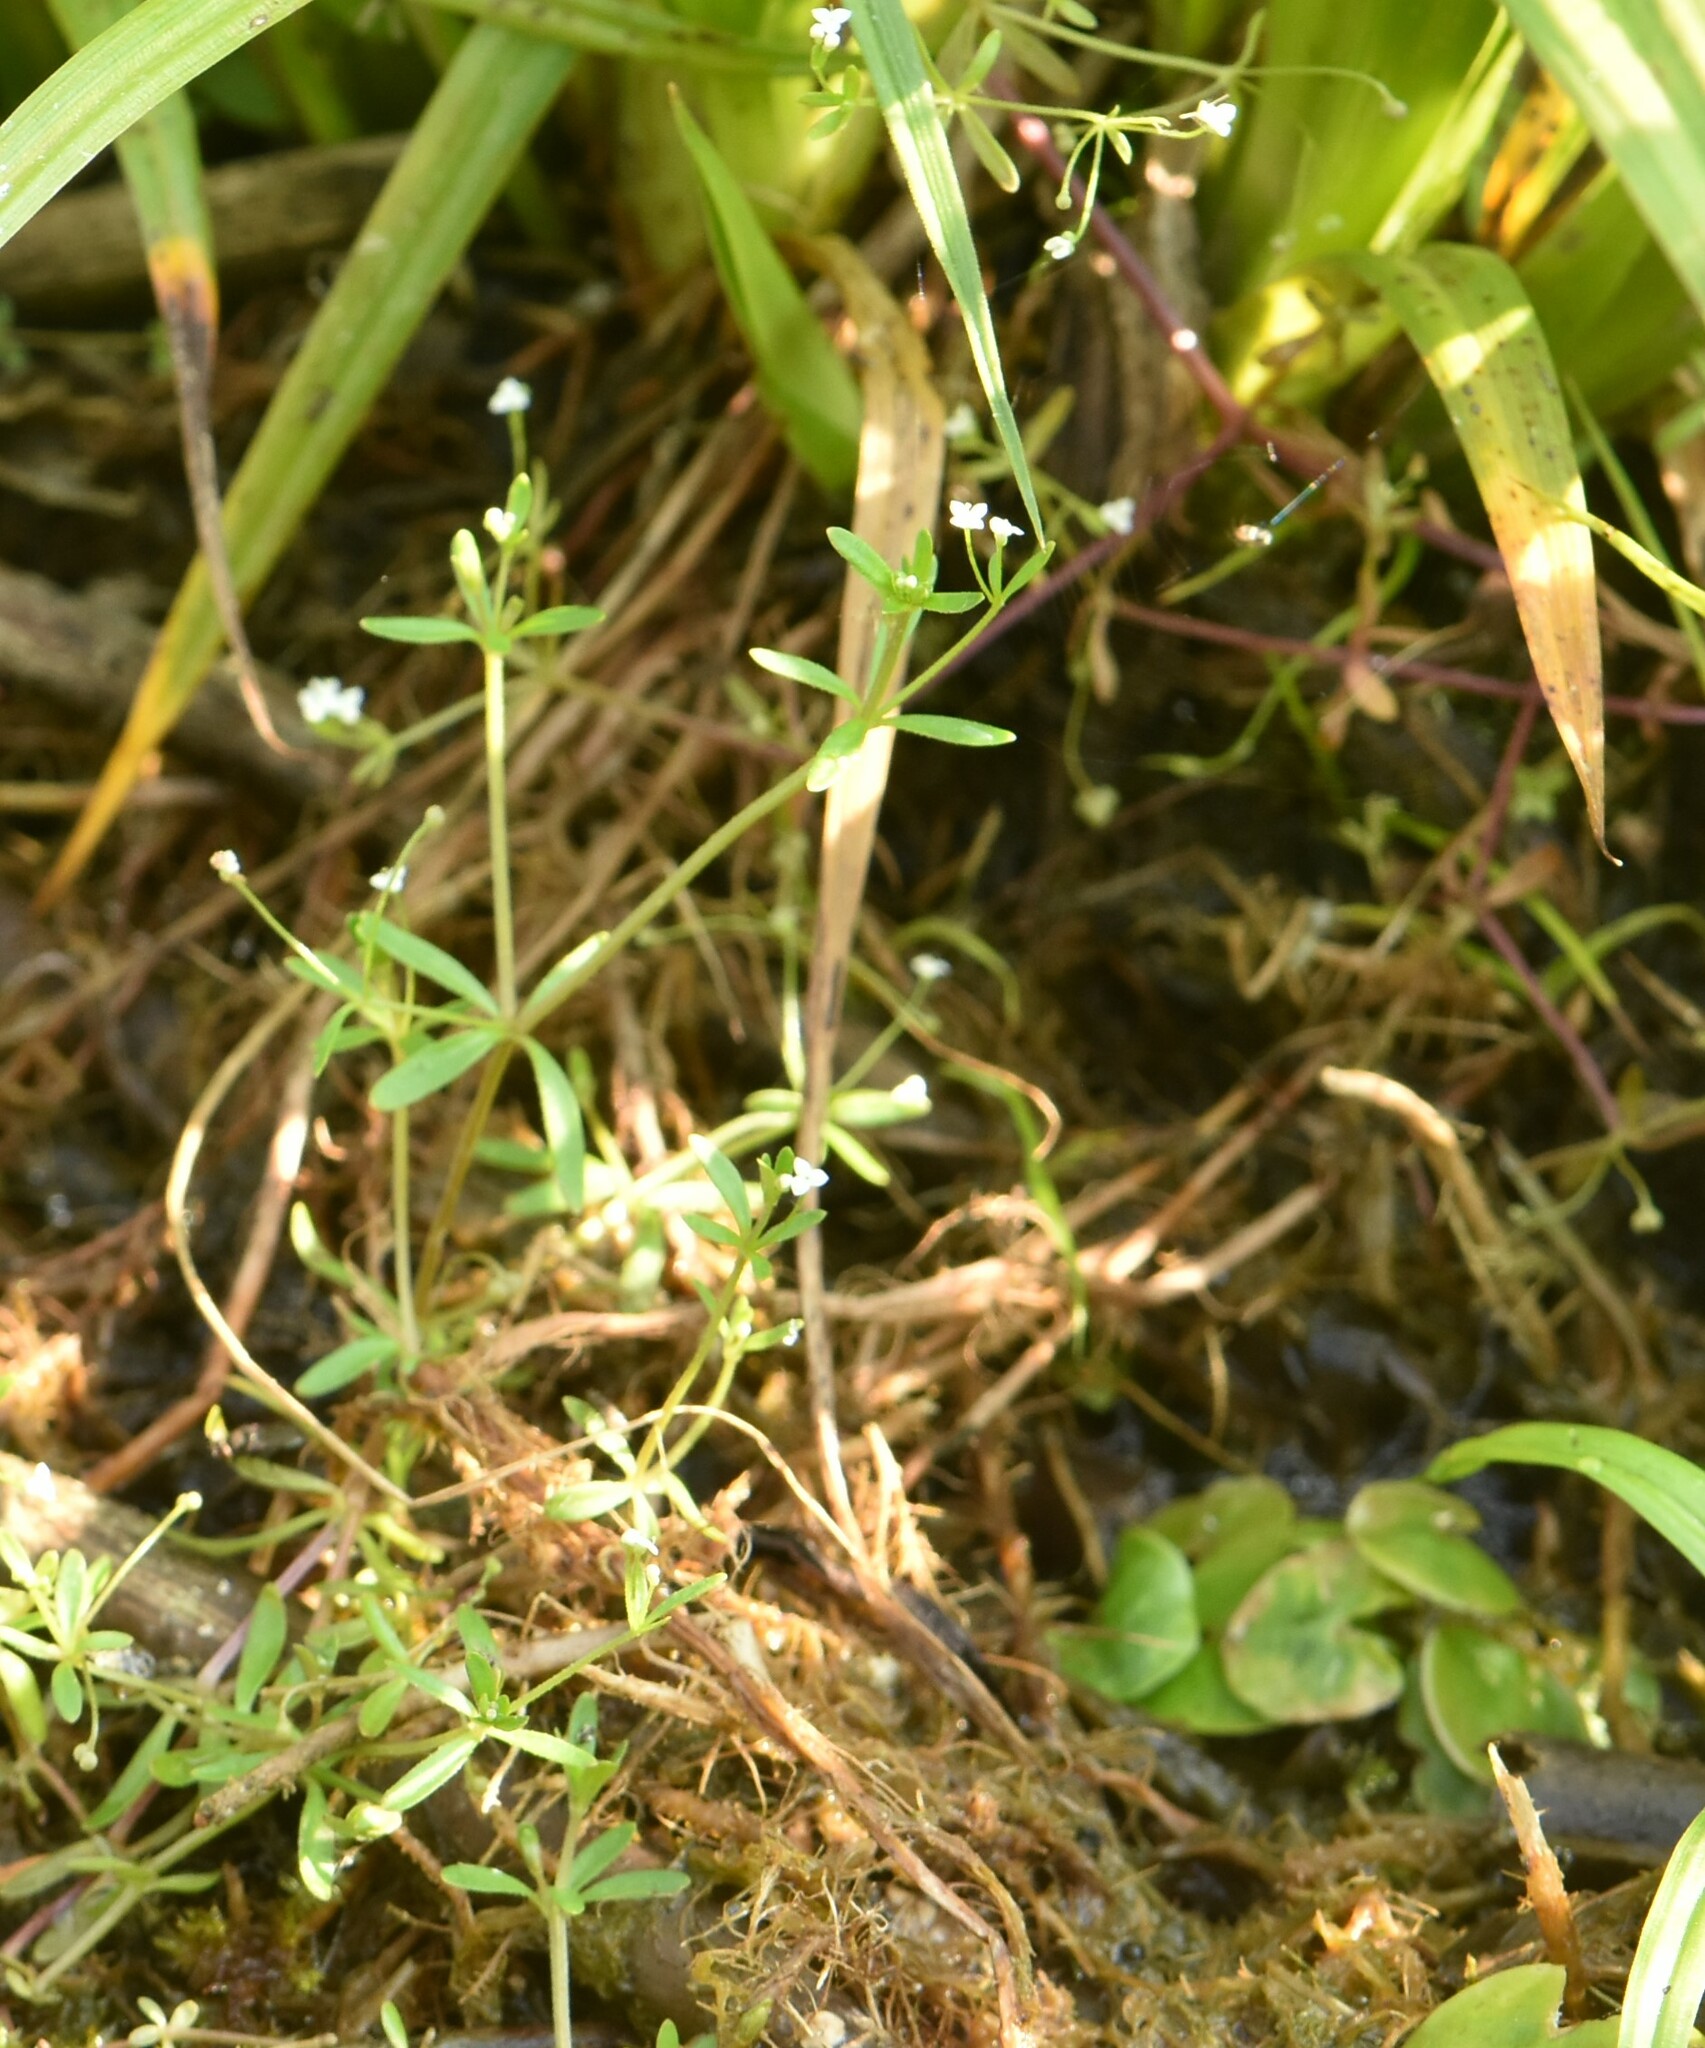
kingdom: Plantae
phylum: Tracheophyta
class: Magnoliopsida
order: Gentianales
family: Rubiaceae
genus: Galium
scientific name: Galium trifidum
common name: Small bedstraw
